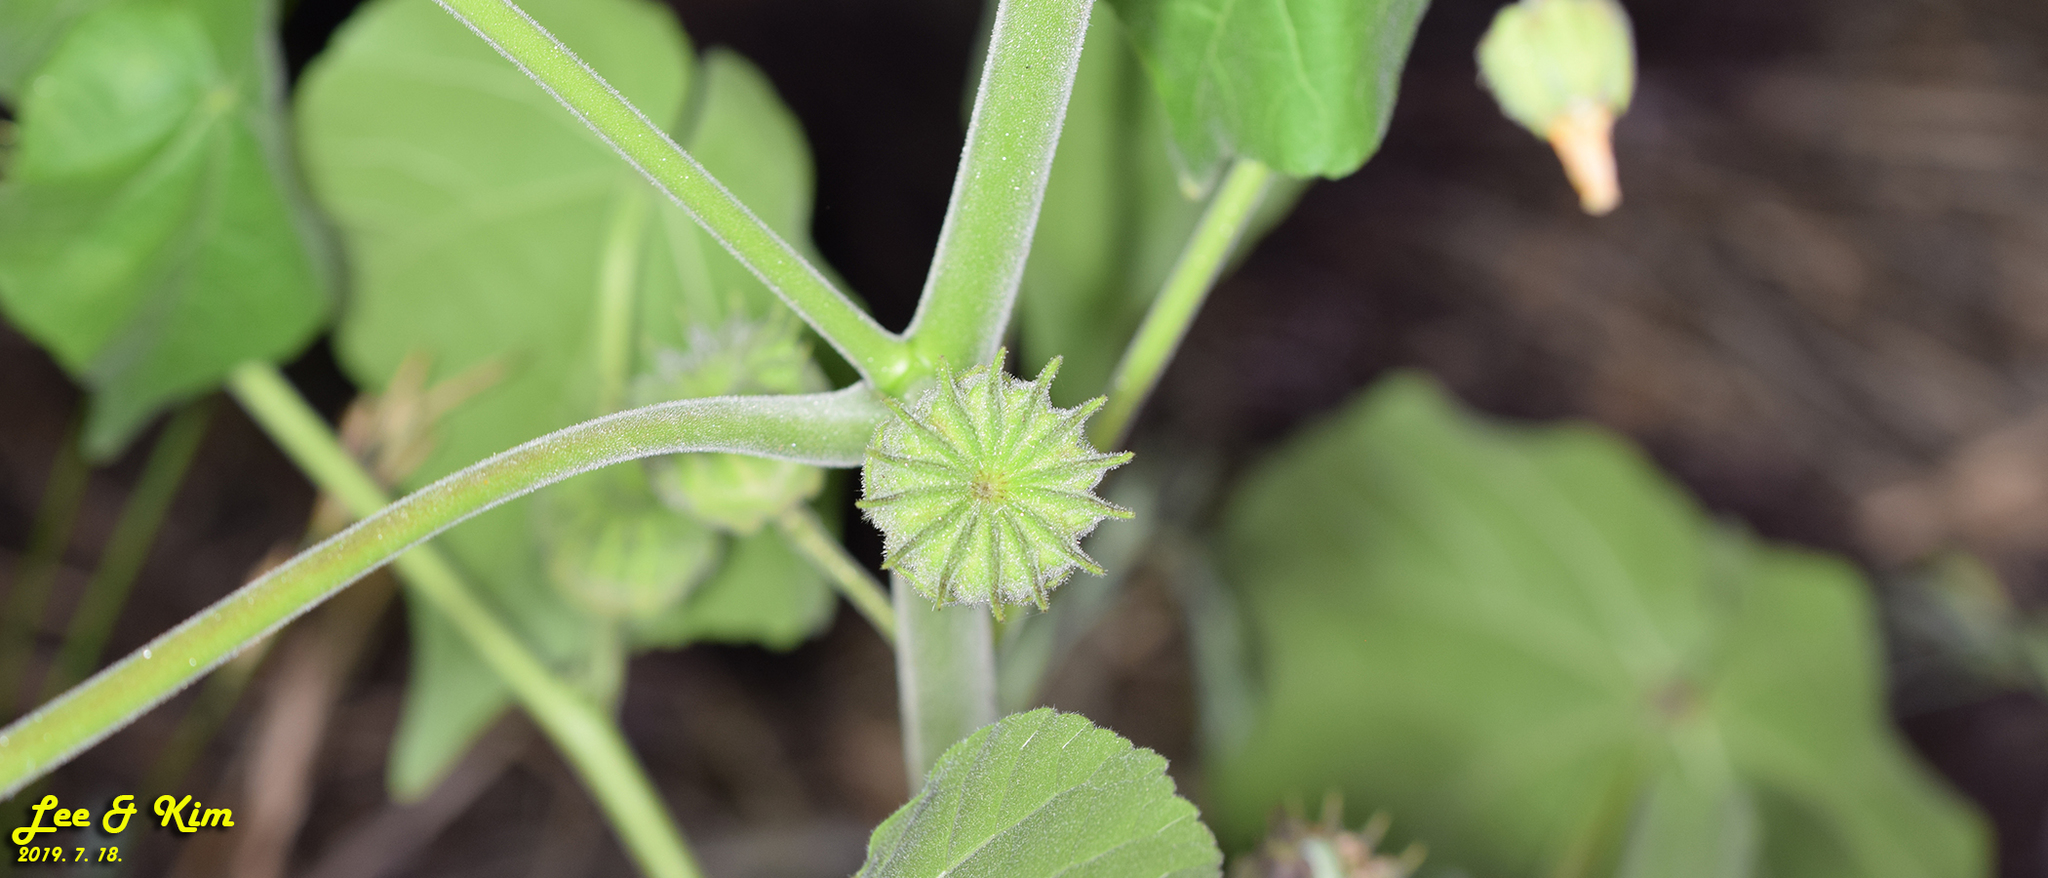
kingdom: Plantae
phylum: Tracheophyta
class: Magnoliopsida
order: Malvales
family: Malvaceae
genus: Abutilon
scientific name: Abutilon theophrasti
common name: Velvetleaf
